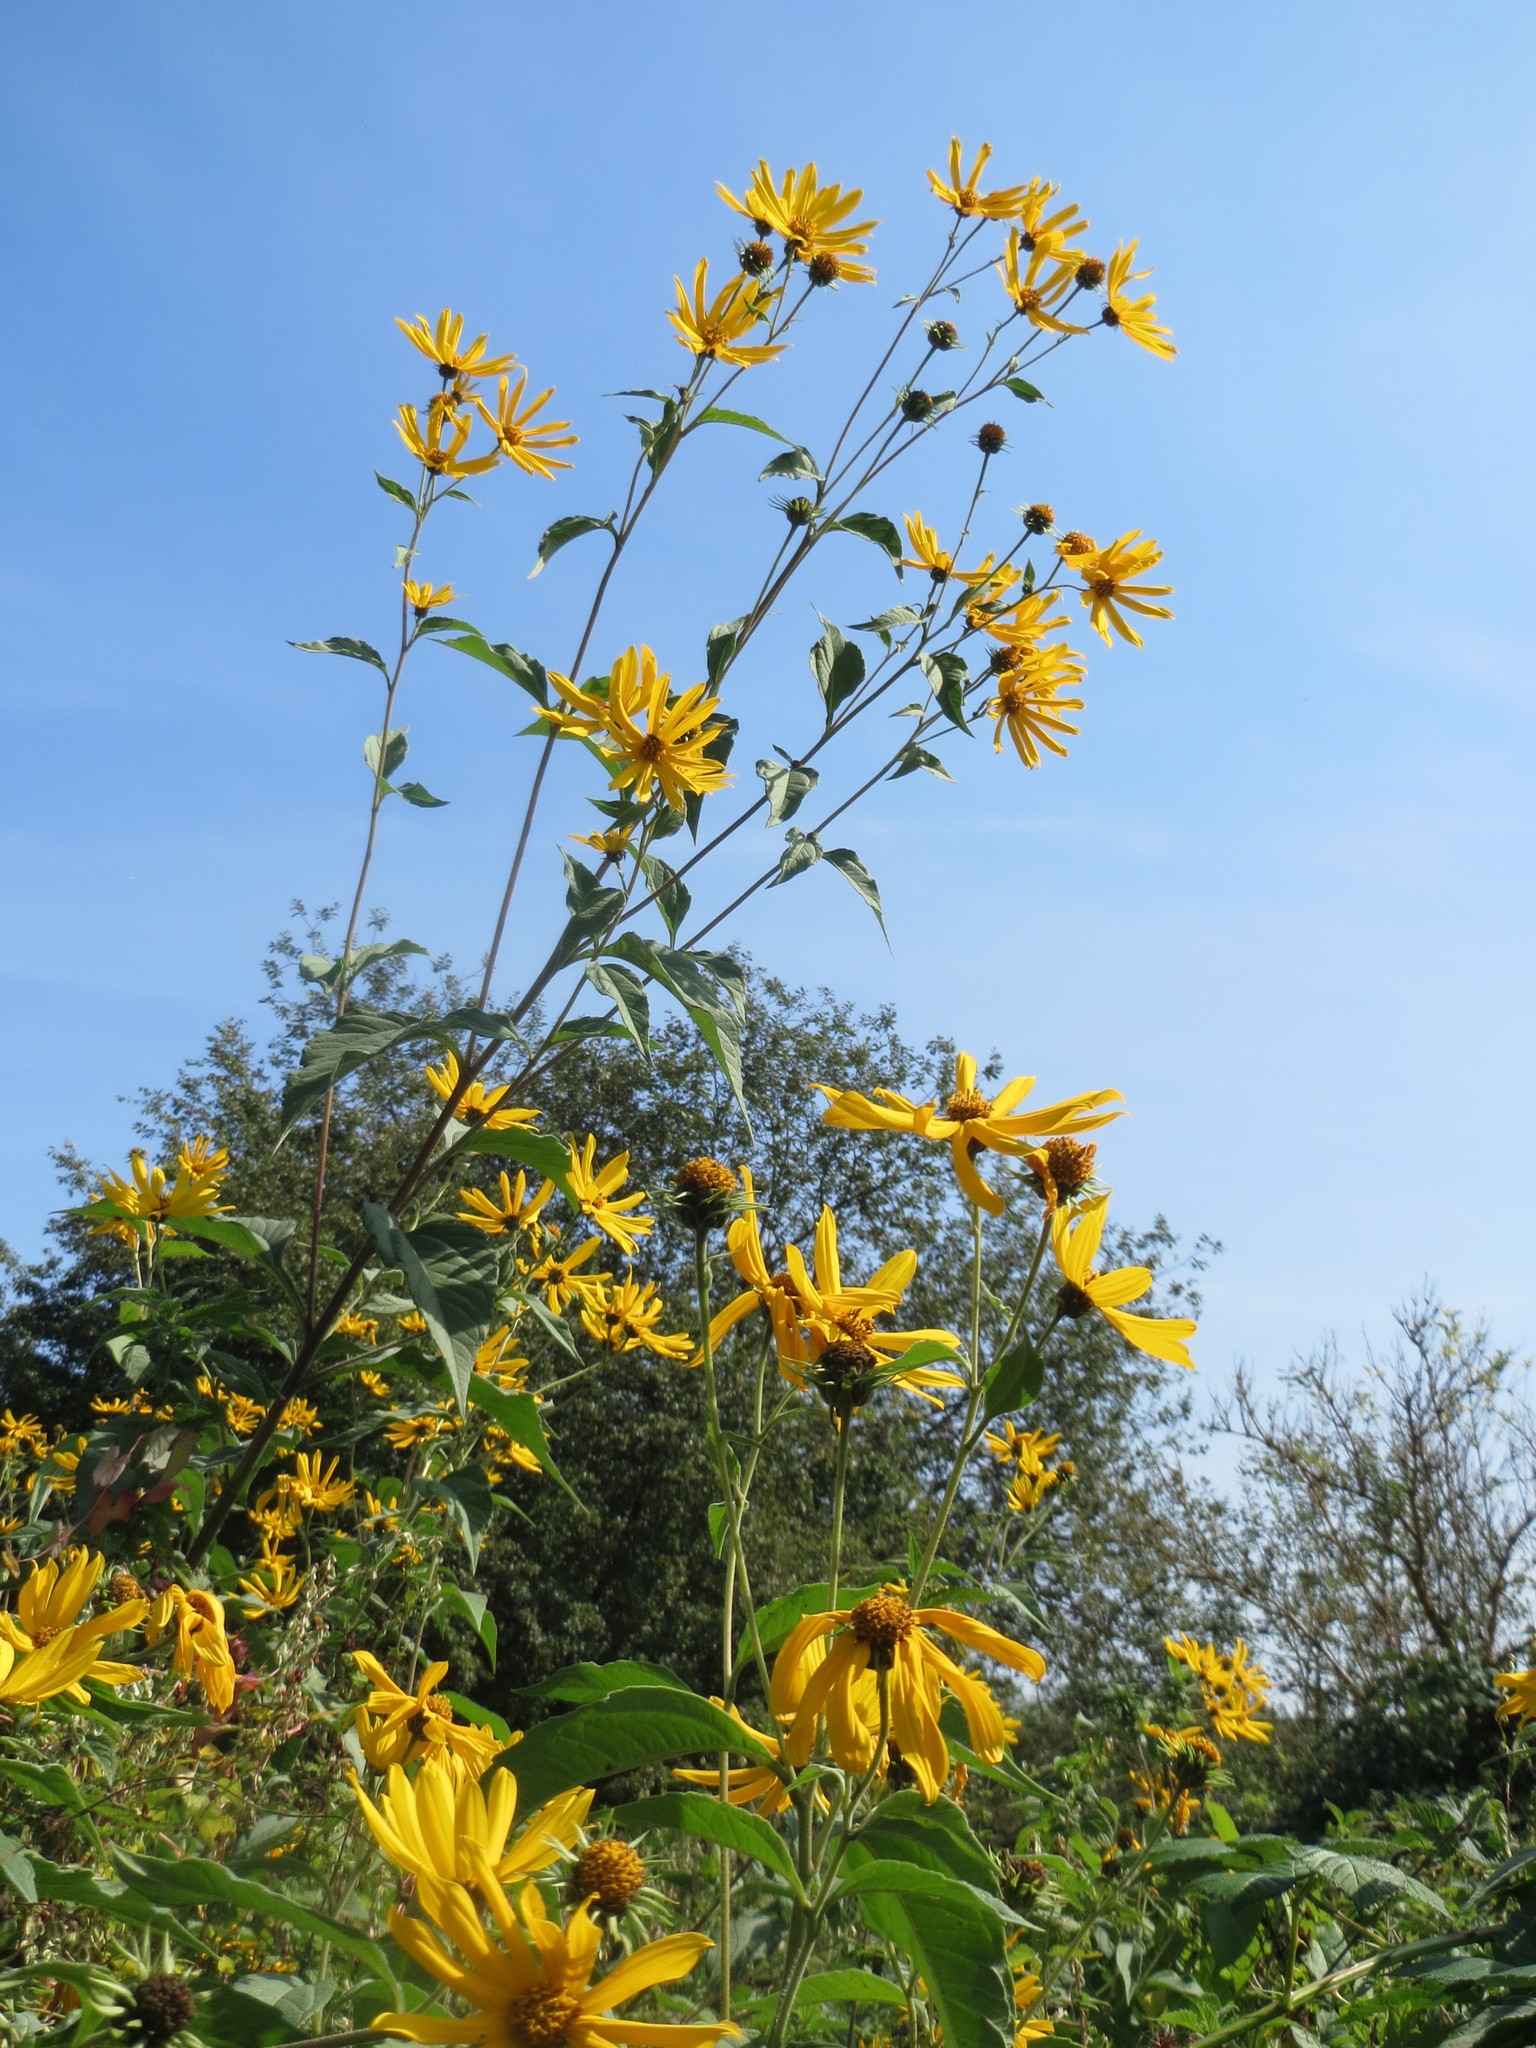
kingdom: Plantae
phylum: Tracheophyta
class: Magnoliopsida
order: Asterales
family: Asteraceae
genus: Helianthus
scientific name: Helianthus tuberosus
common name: Jerusalem artichoke
